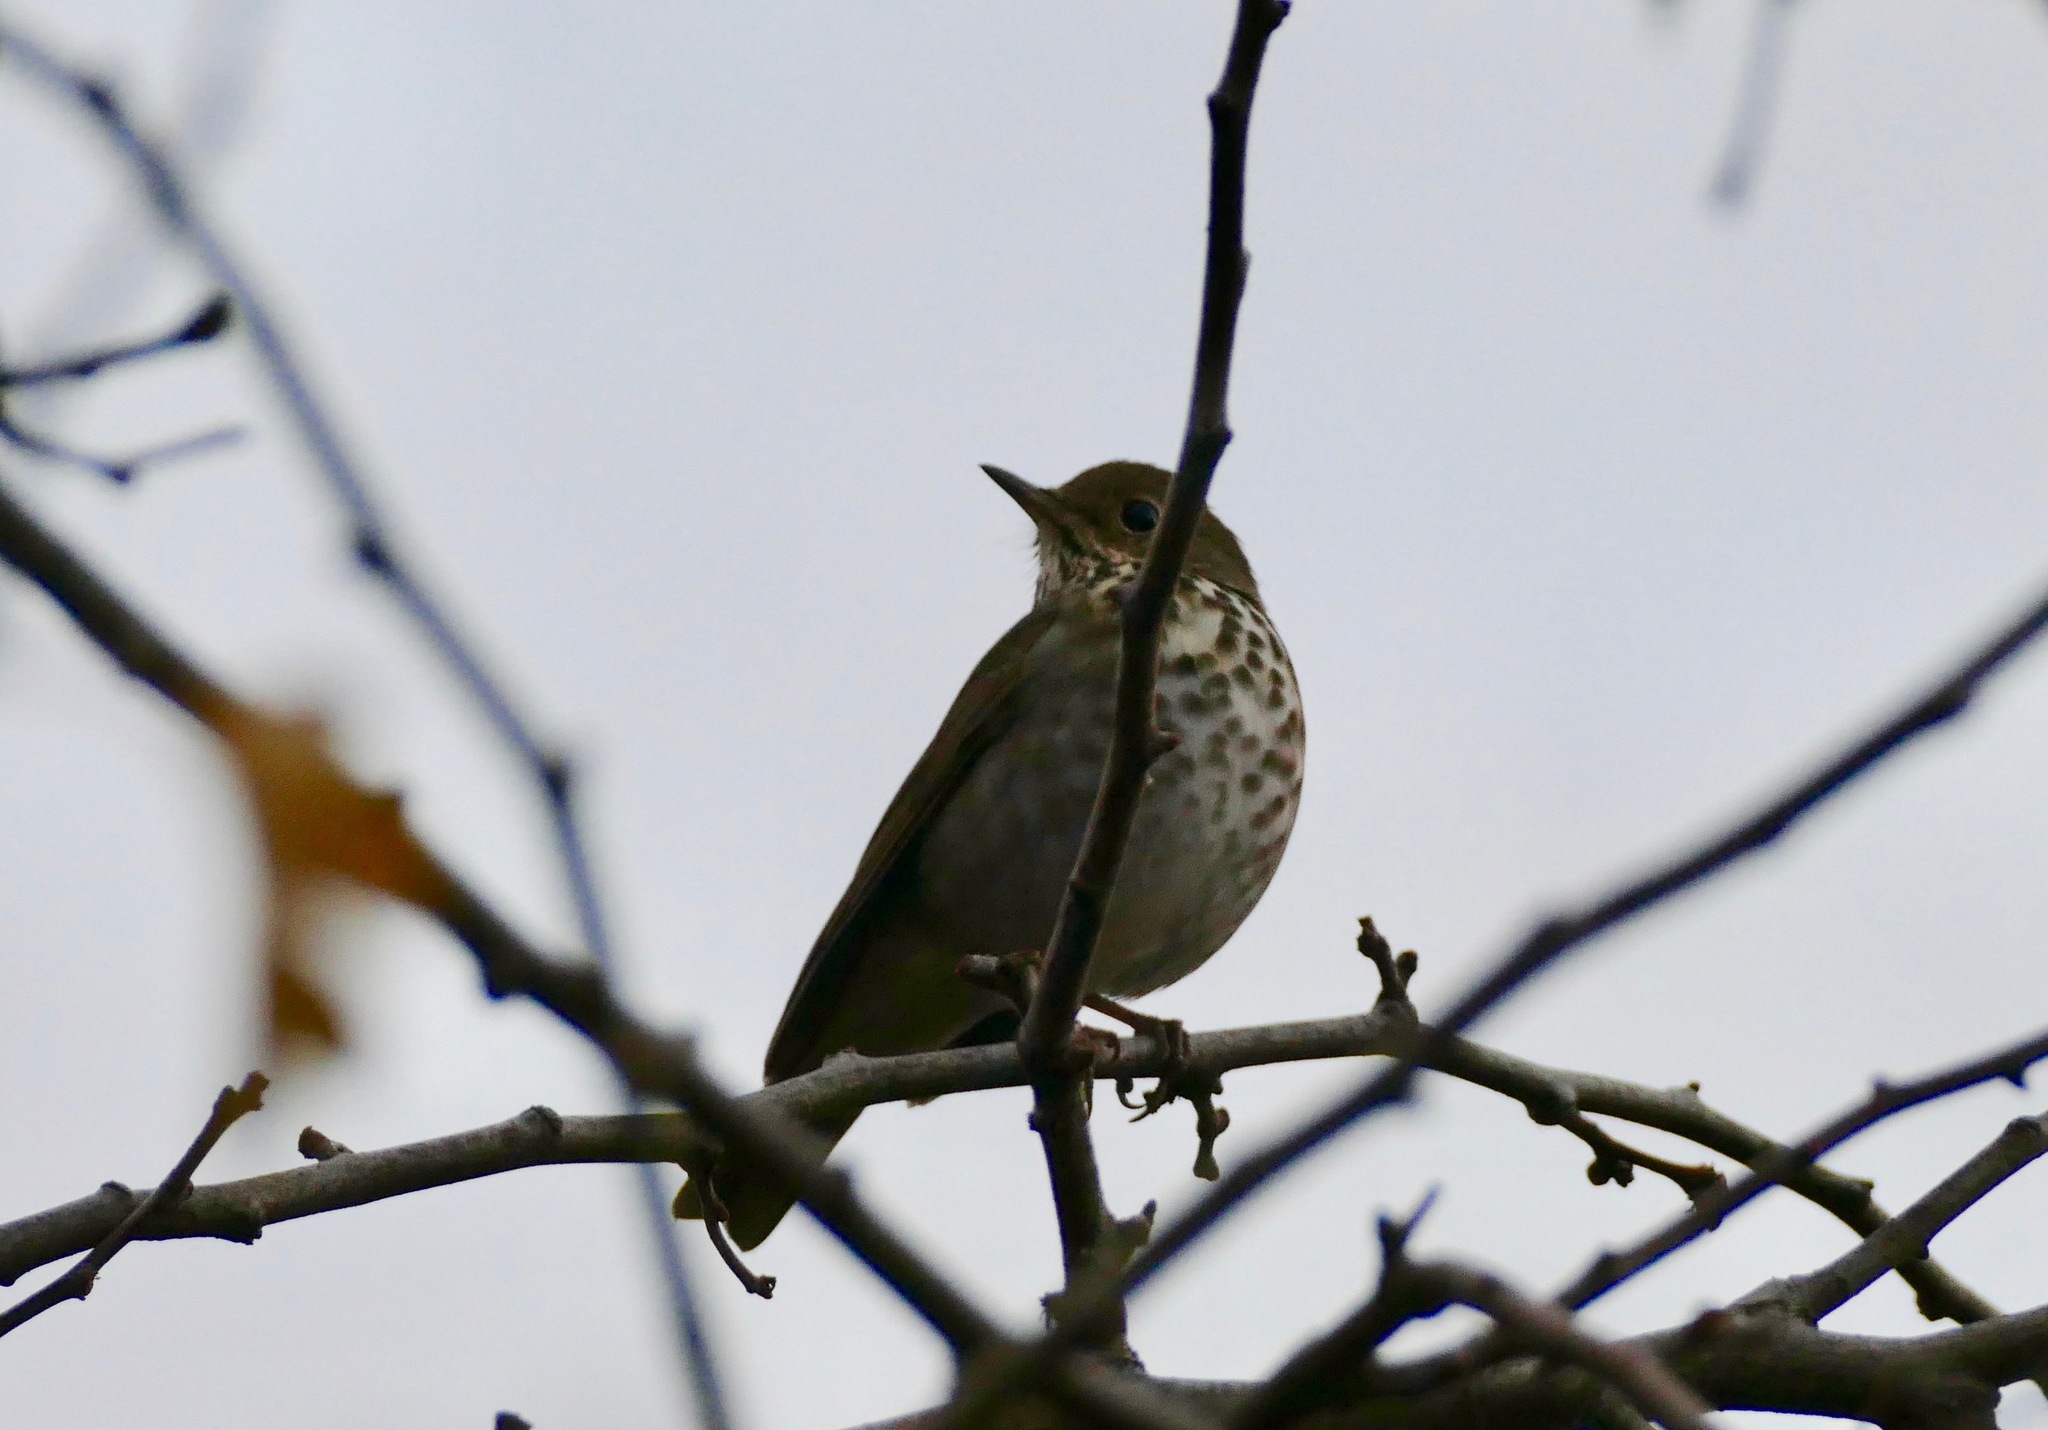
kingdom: Animalia
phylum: Chordata
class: Aves
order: Passeriformes
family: Turdidae
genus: Catharus
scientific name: Catharus guttatus
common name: Hermit thrush
